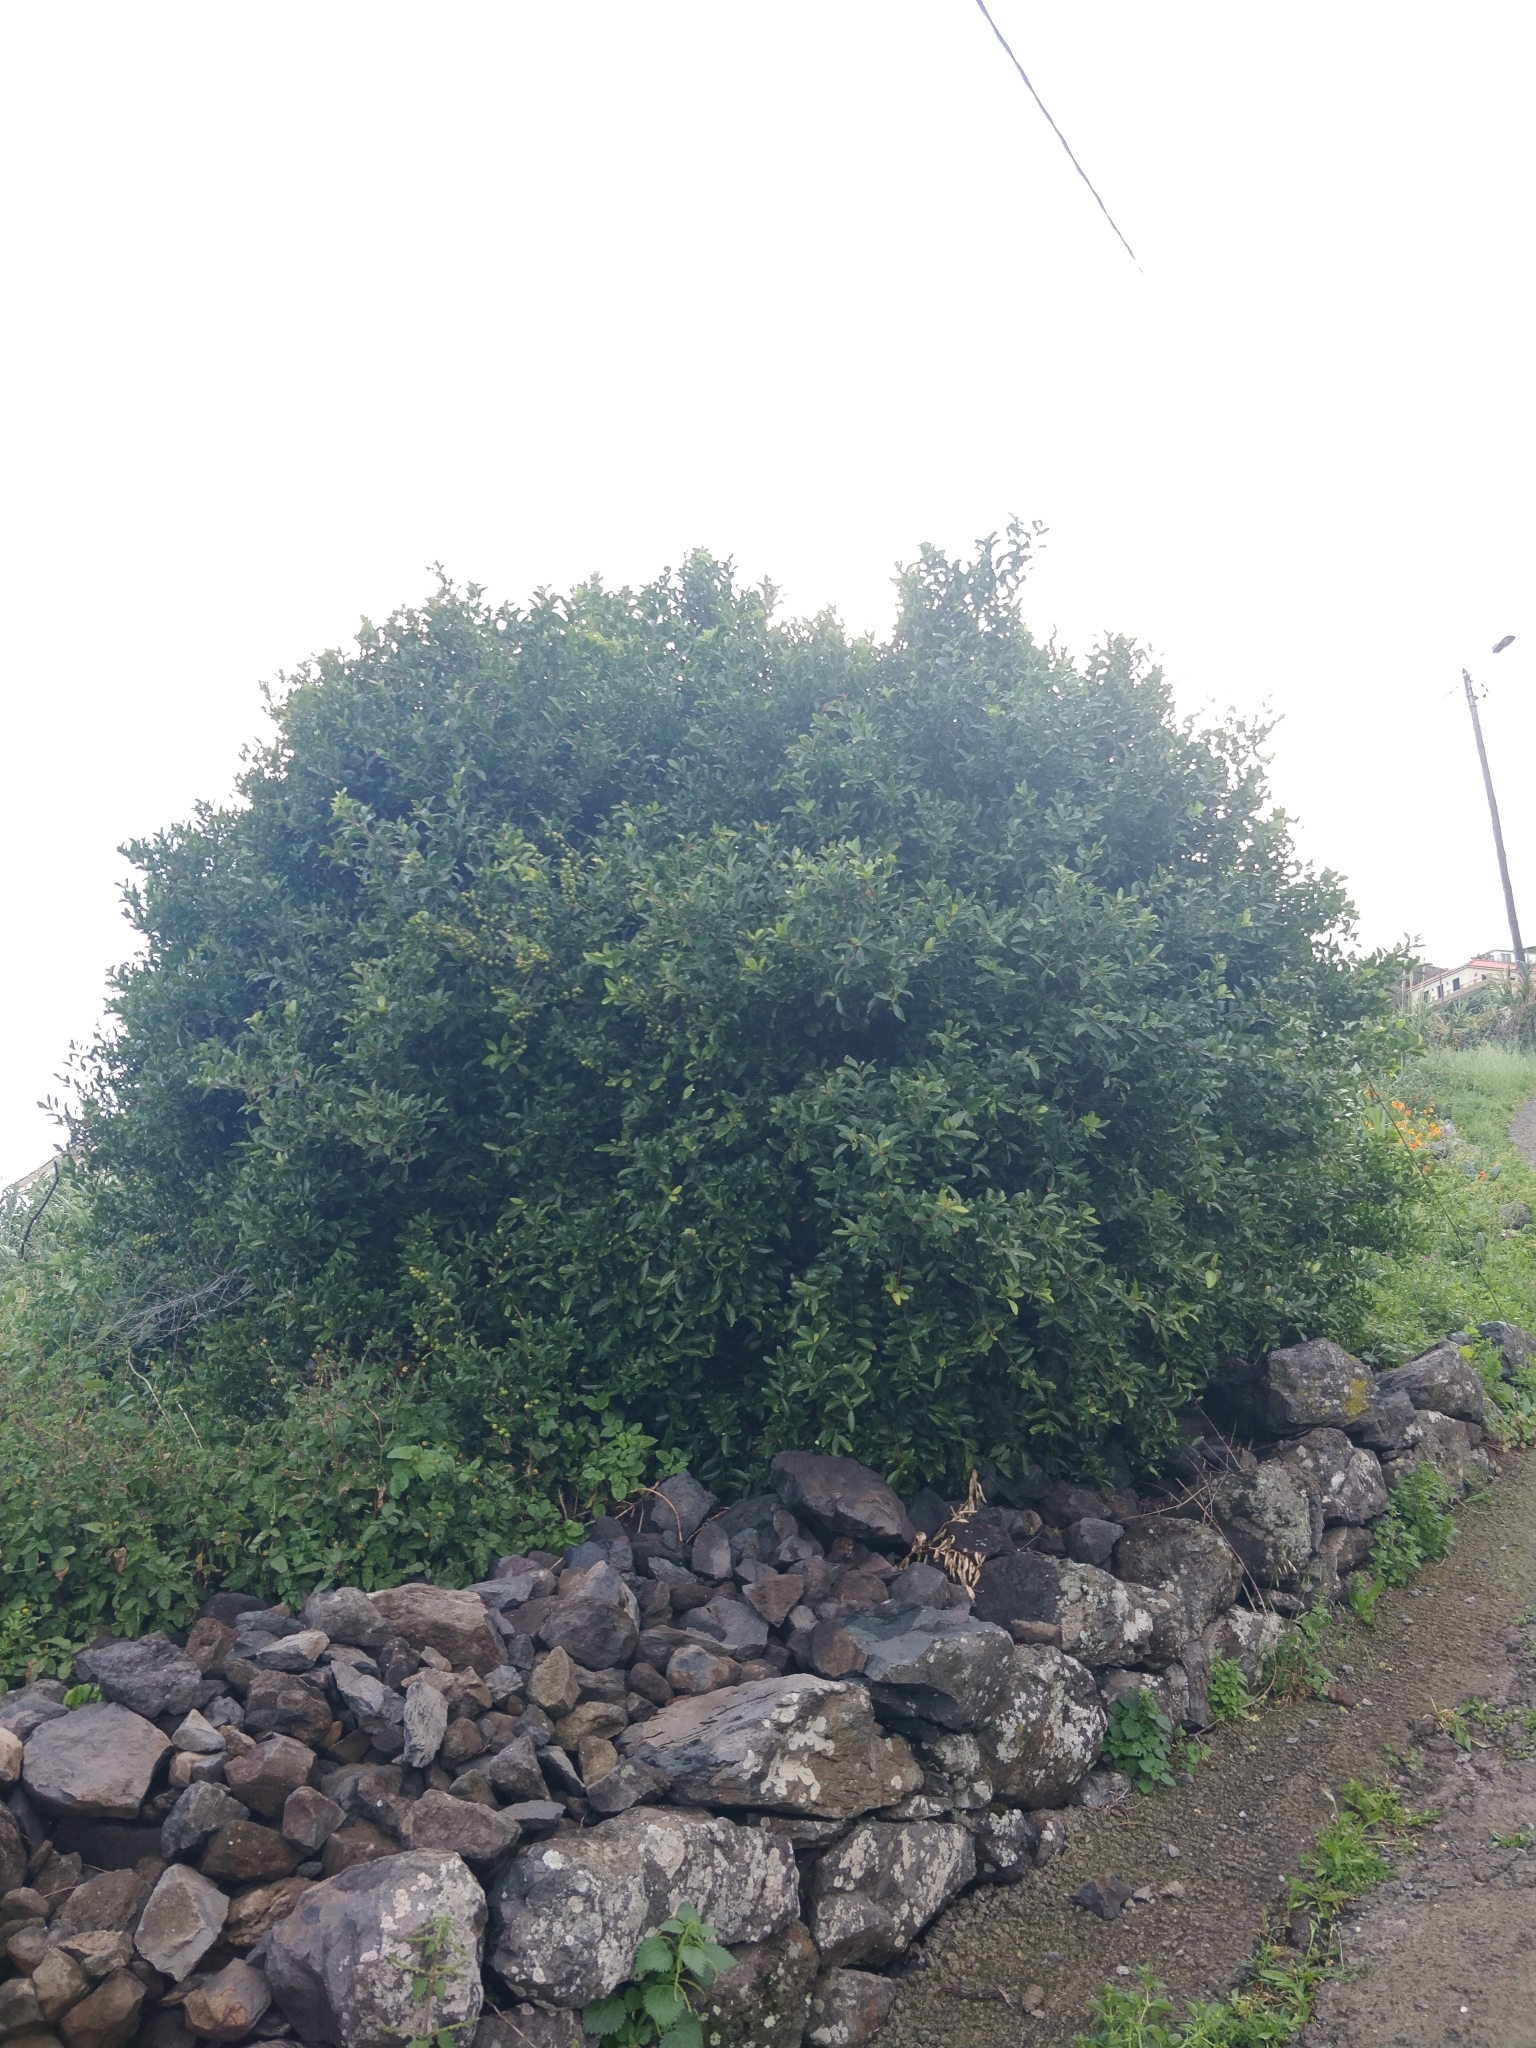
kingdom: Plantae
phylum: Tracheophyta
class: Magnoliopsida
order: Celastrales
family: Celastraceae
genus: Gymnosporia
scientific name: Gymnosporia dryandri
